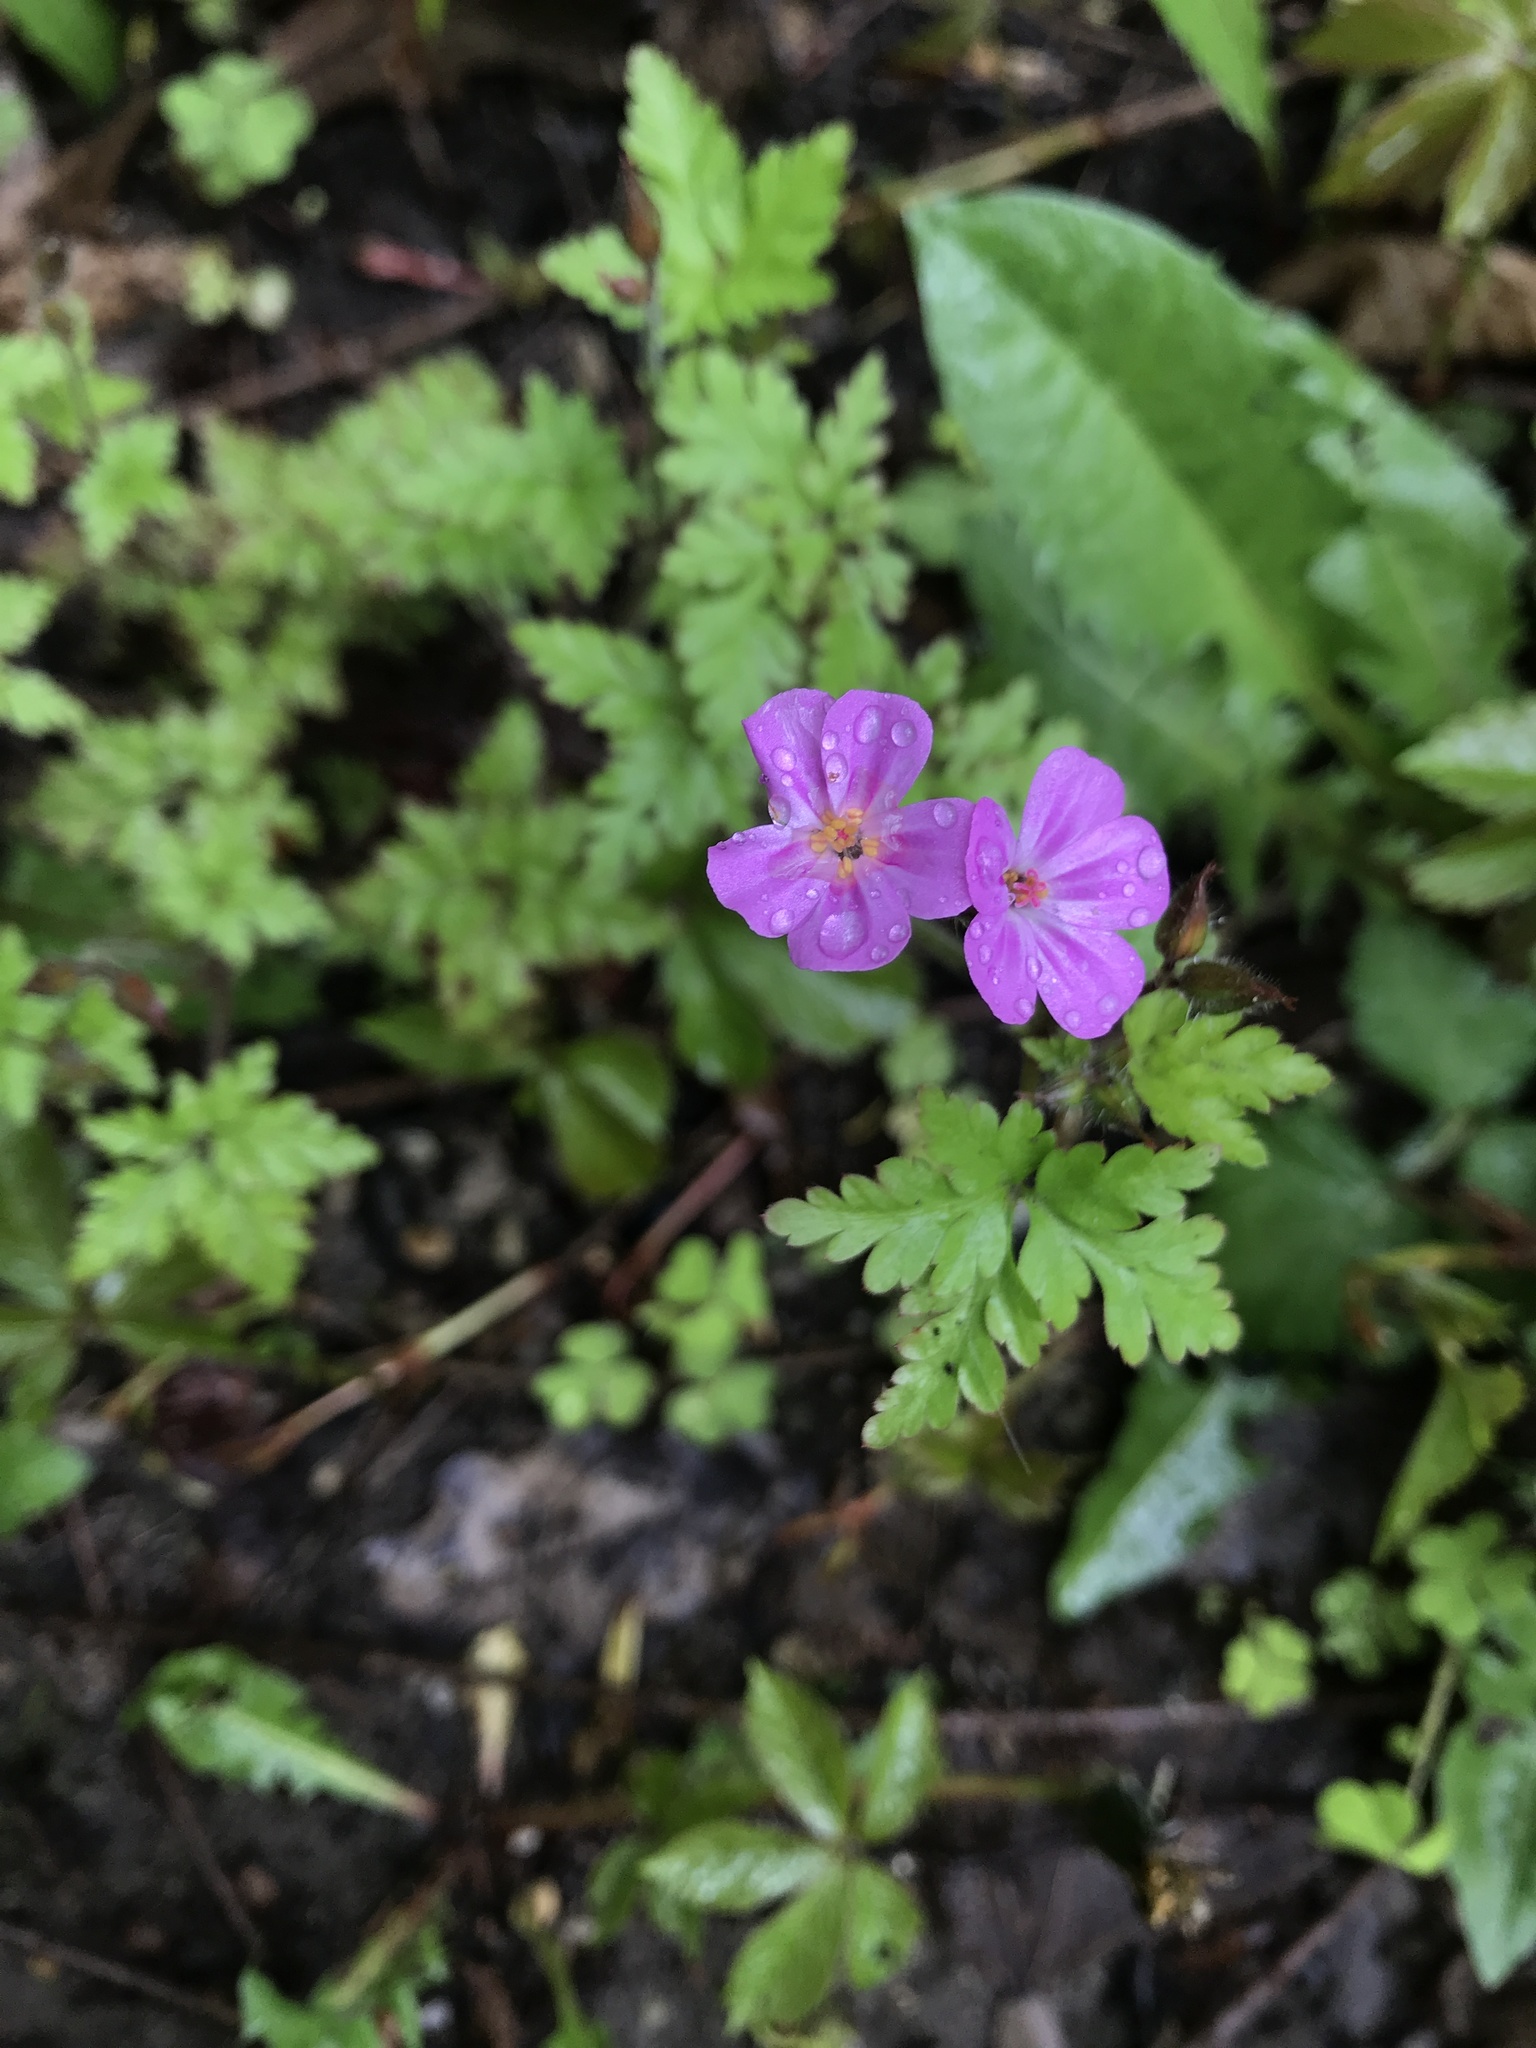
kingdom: Plantae
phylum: Tracheophyta
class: Magnoliopsida
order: Geraniales
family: Geraniaceae
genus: Geranium
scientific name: Geranium robertianum
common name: Herb-robert
